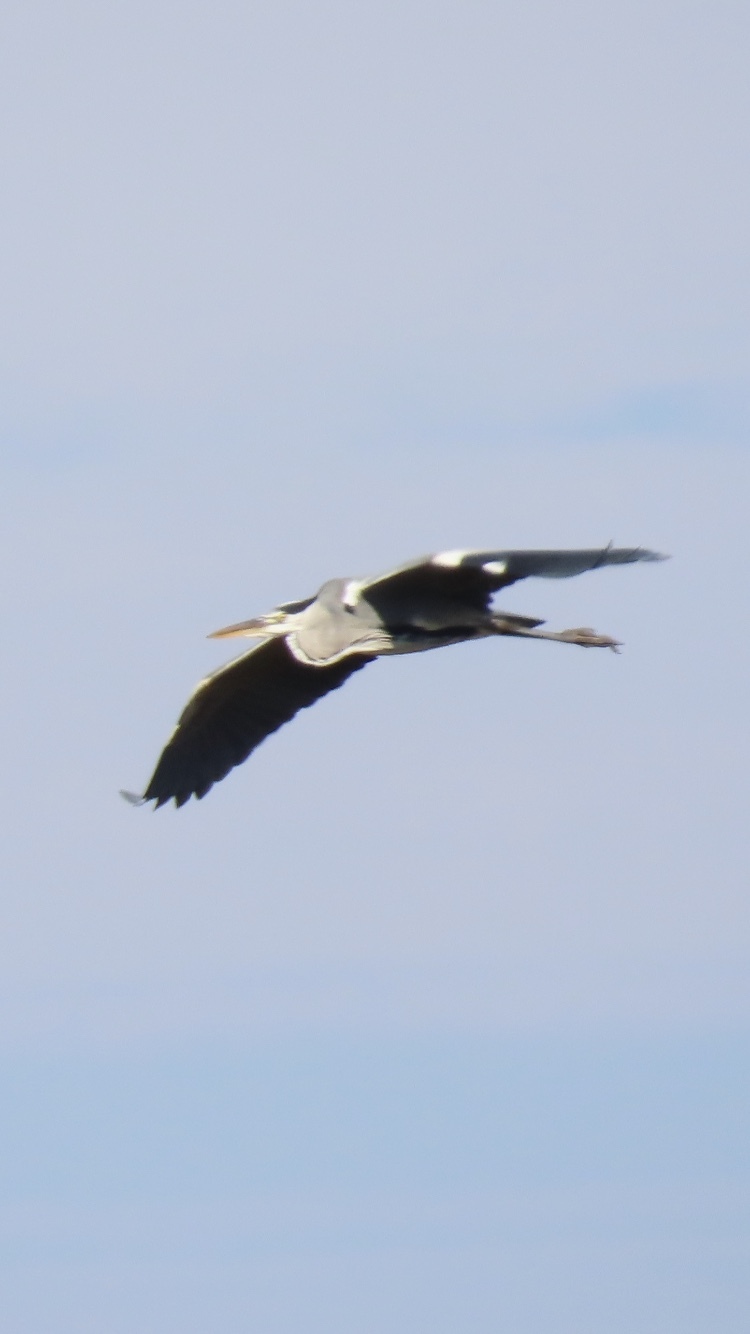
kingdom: Animalia
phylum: Chordata
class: Aves
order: Pelecaniformes
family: Ardeidae
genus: Ardea
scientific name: Ardea cinerea
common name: Grey heron
